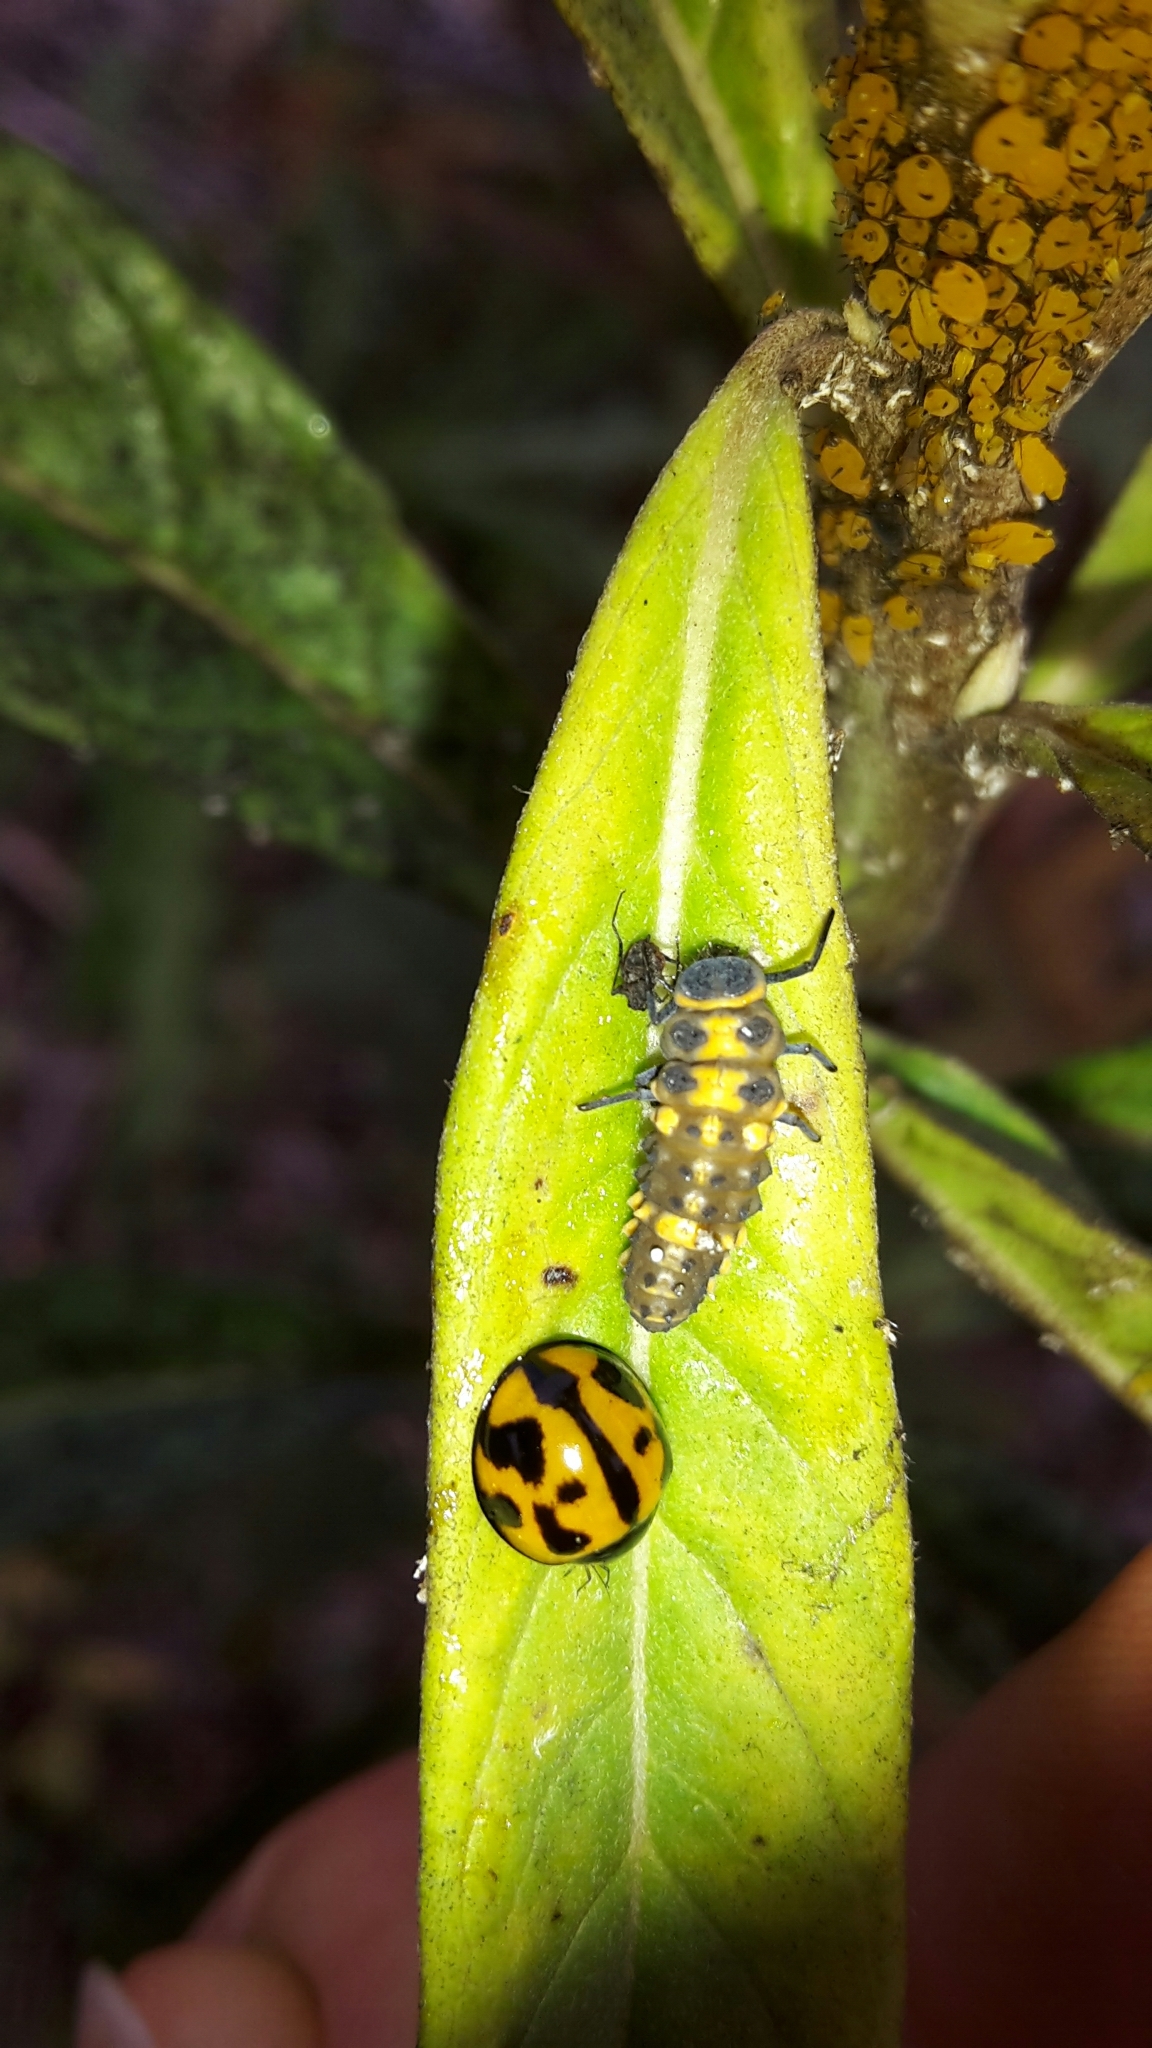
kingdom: Animalia
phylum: Arthropoda
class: Insecta
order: Coleoptera
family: Coccinellidae
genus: Coelophora
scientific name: Coelophora inaequalis
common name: Common australian lady beetle
